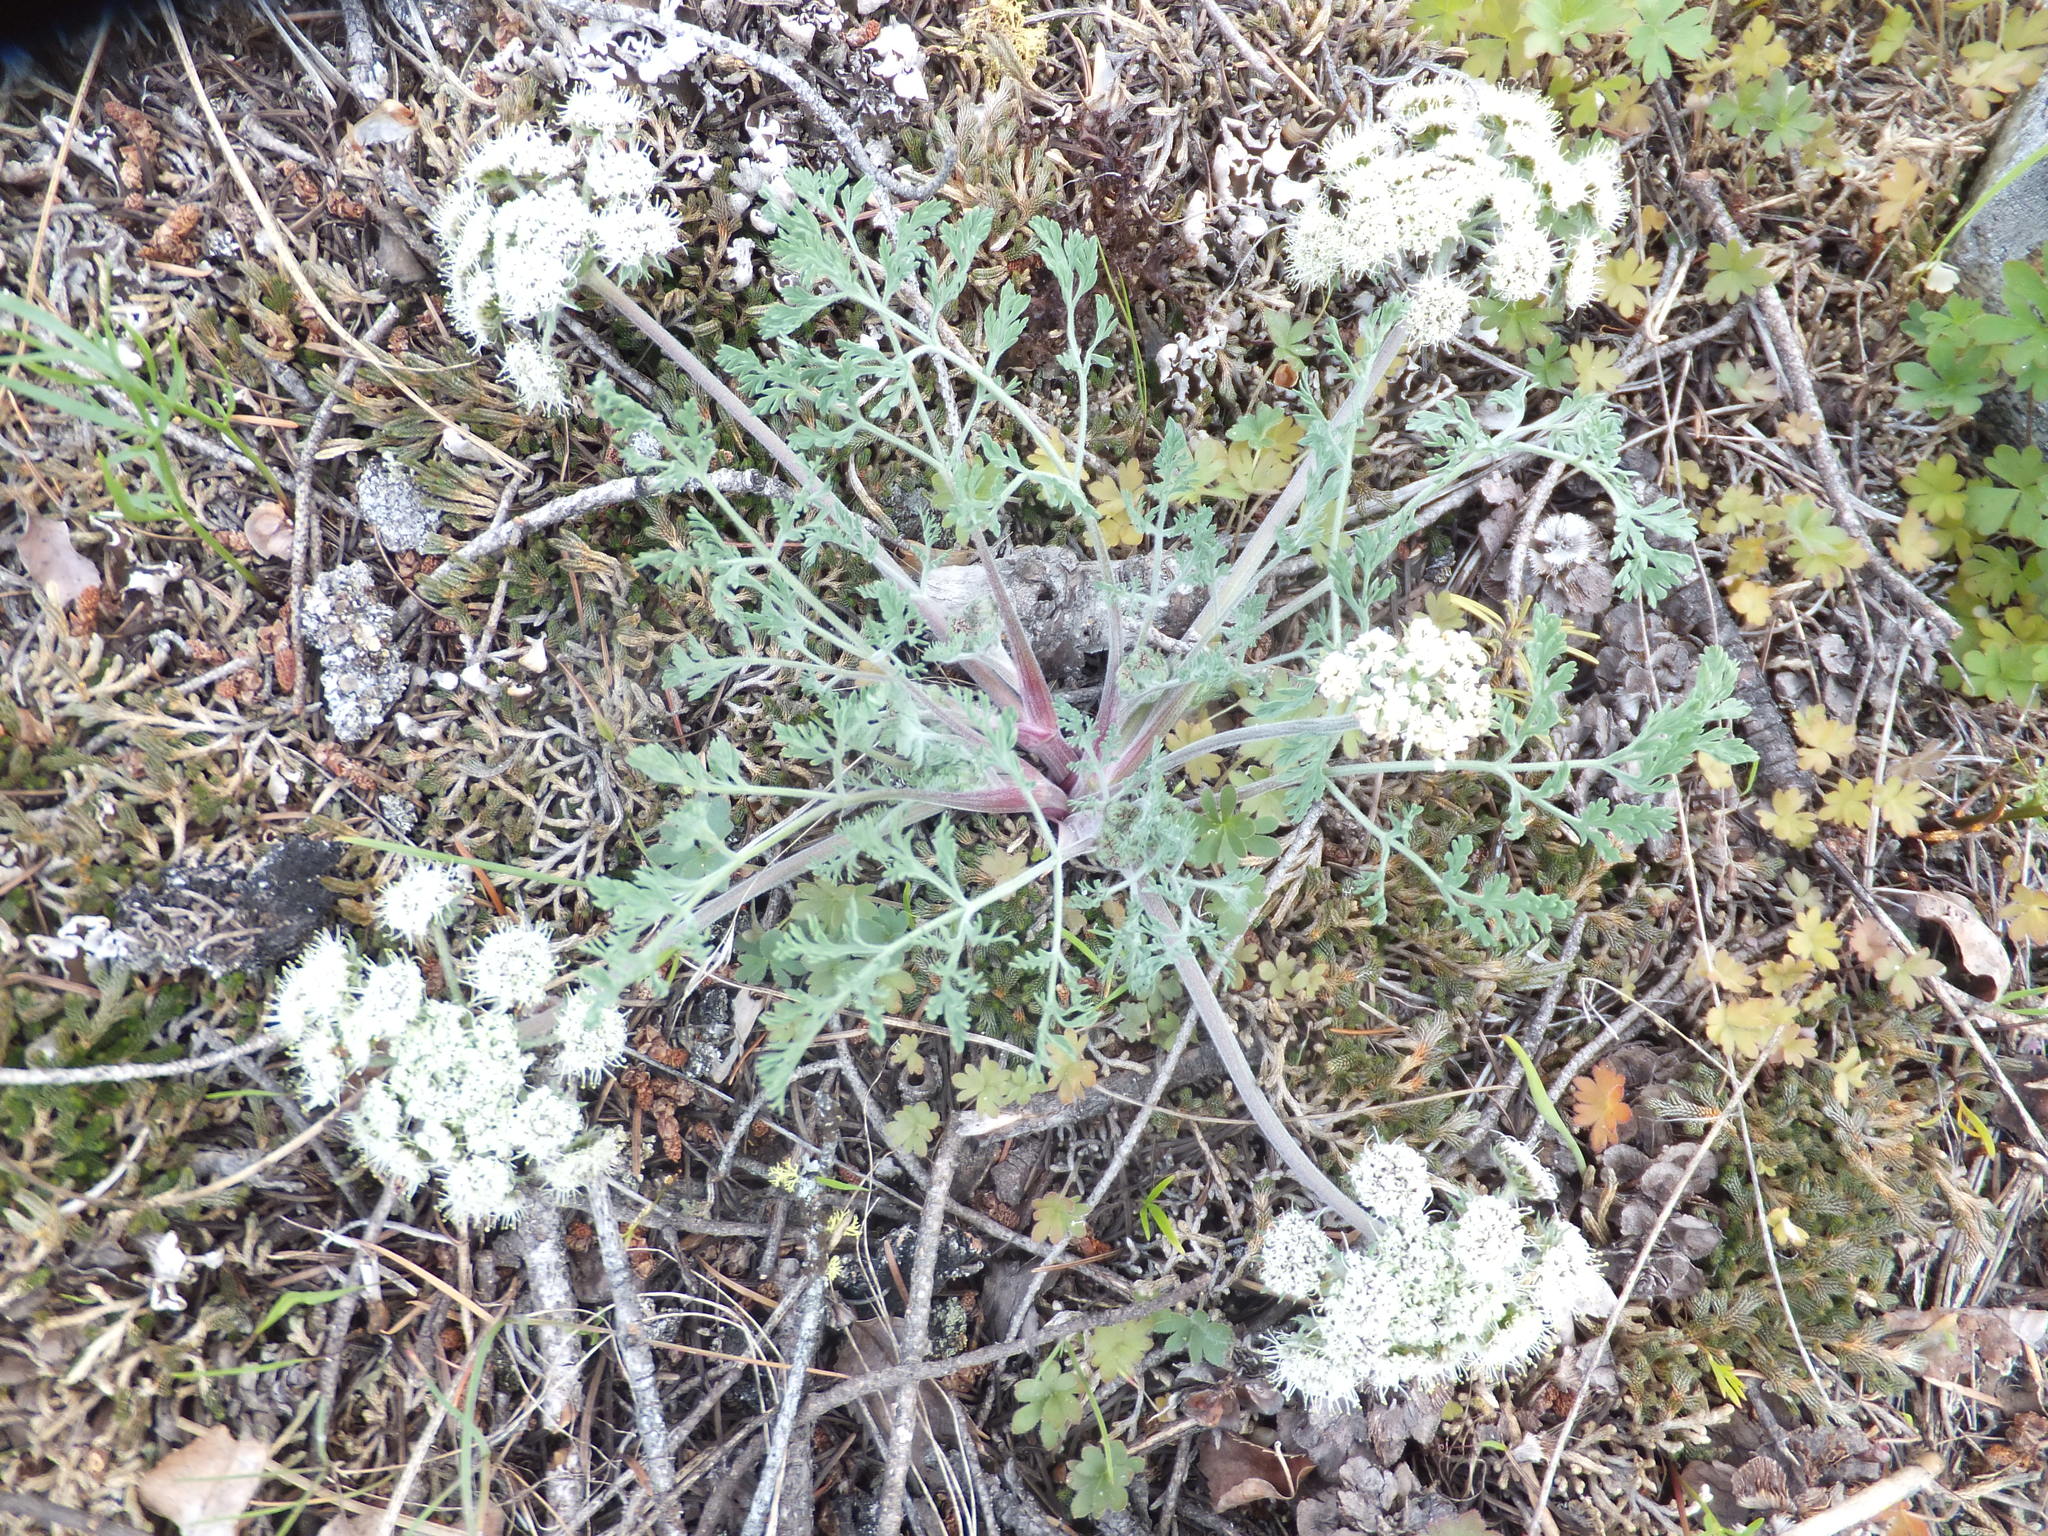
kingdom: Plantae
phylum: Tracheophyta
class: Magnoliopsida
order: Apiales
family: Apiaceae
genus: Lomatium
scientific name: Lomatium macrocarpum
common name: Big-seed biscuitroot
